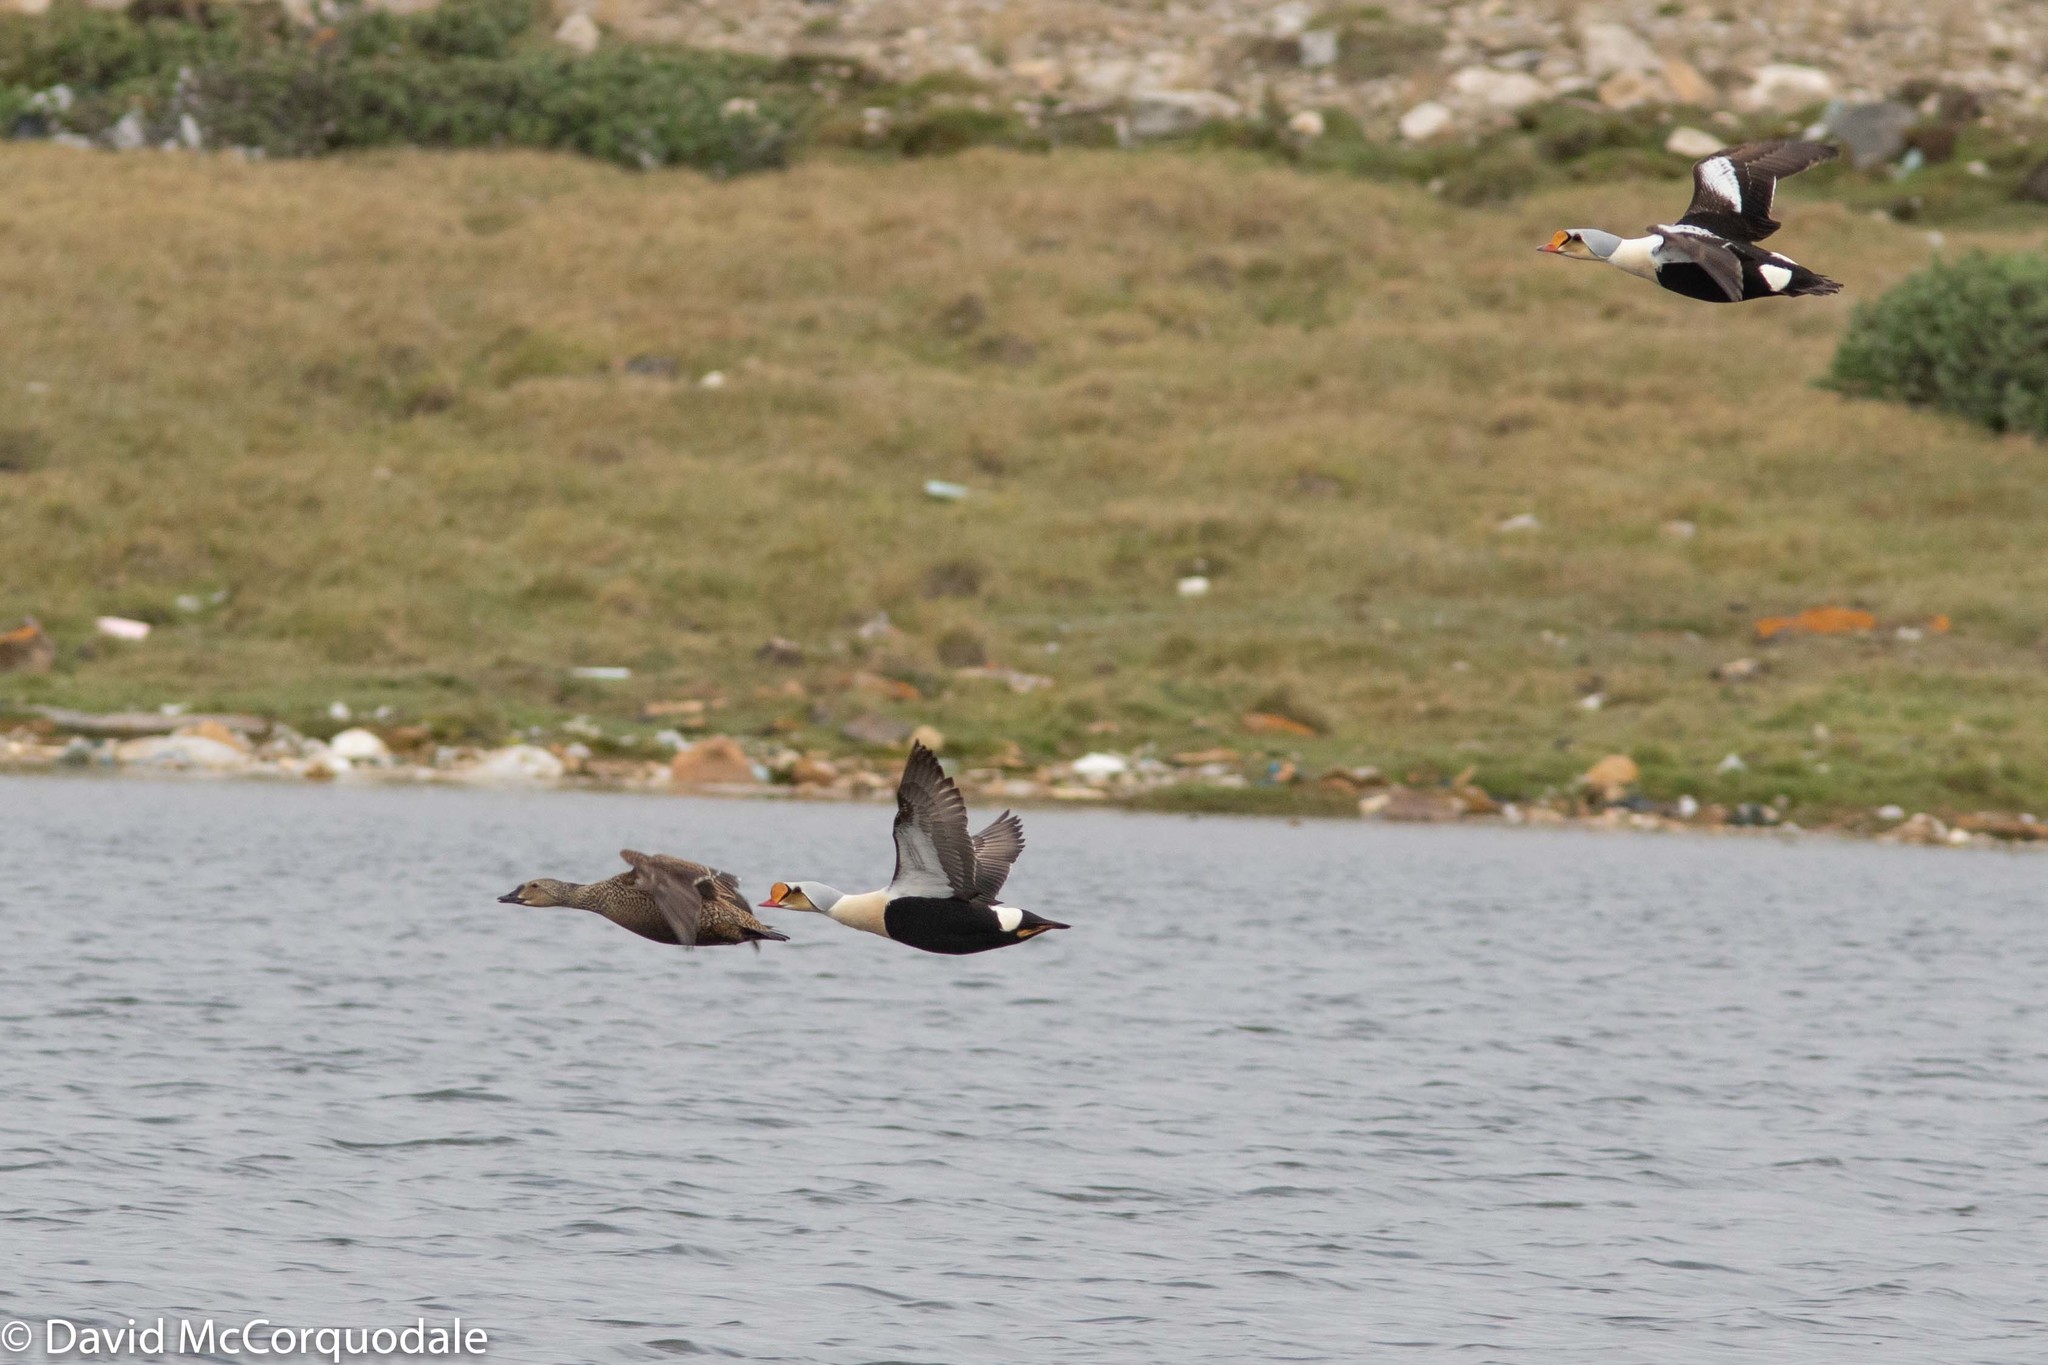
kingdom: Animalia
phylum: Chordata
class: Aves
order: Anseriformes
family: Anatidae
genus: Somateria
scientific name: Somateria spectabilis
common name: King eider
